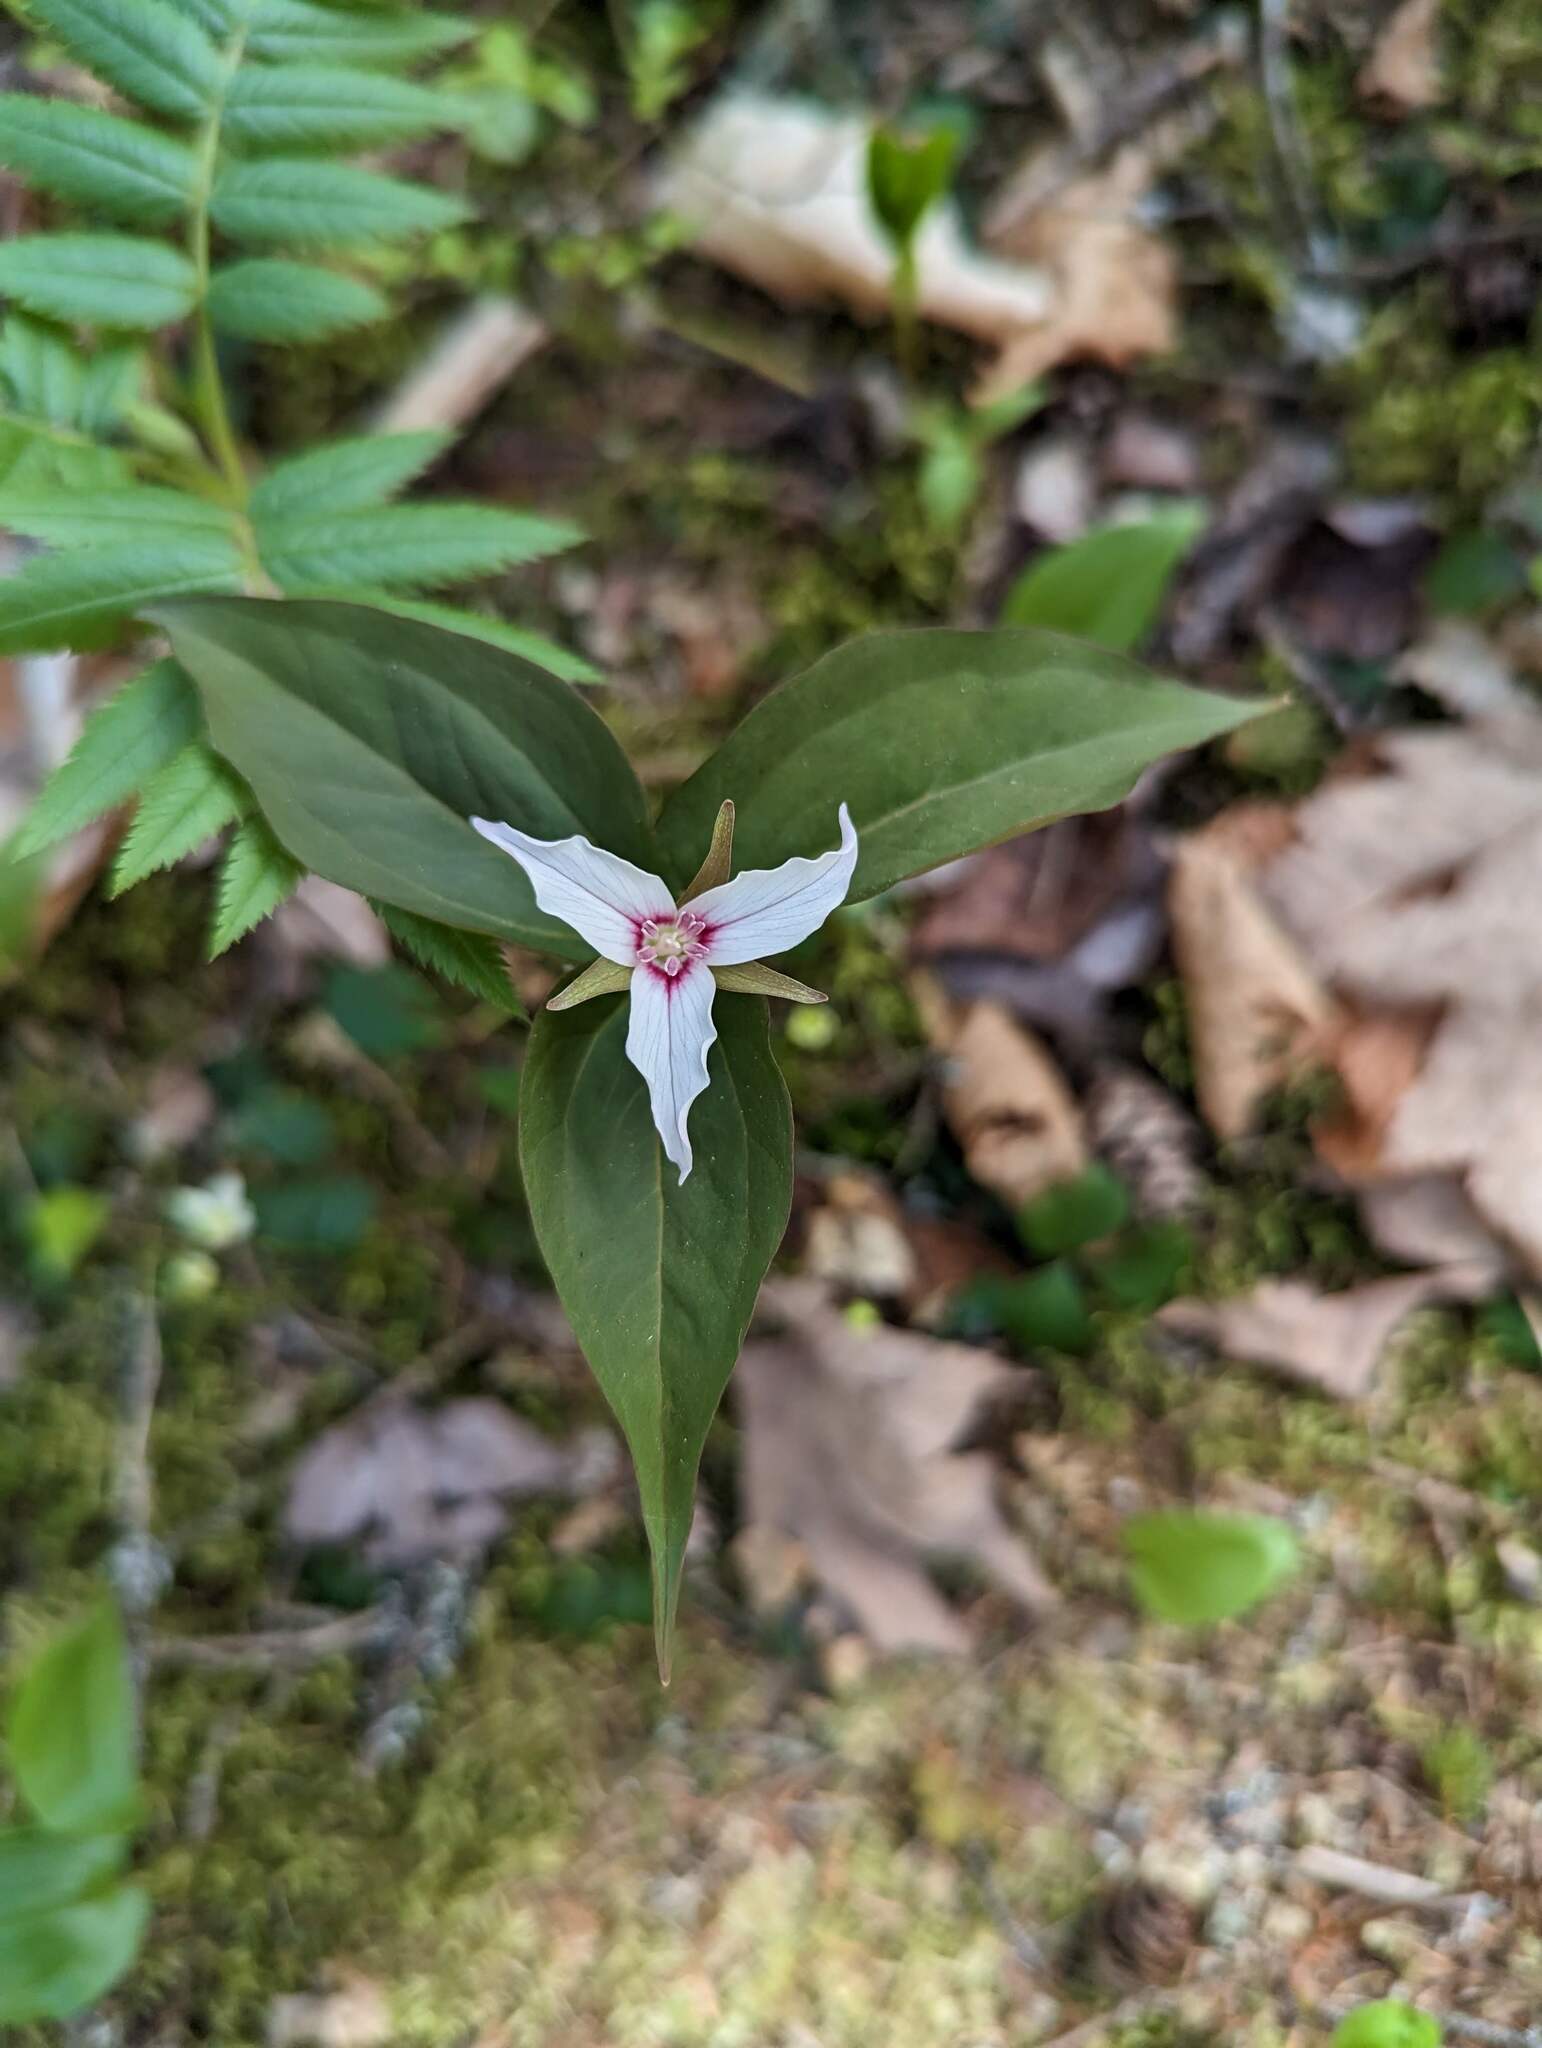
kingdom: Plantae
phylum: Tracheophyta
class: Liliopsida
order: Liliales
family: Melanthiaceae
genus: Trillium
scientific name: Trillium undulatum
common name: Paint trillium
